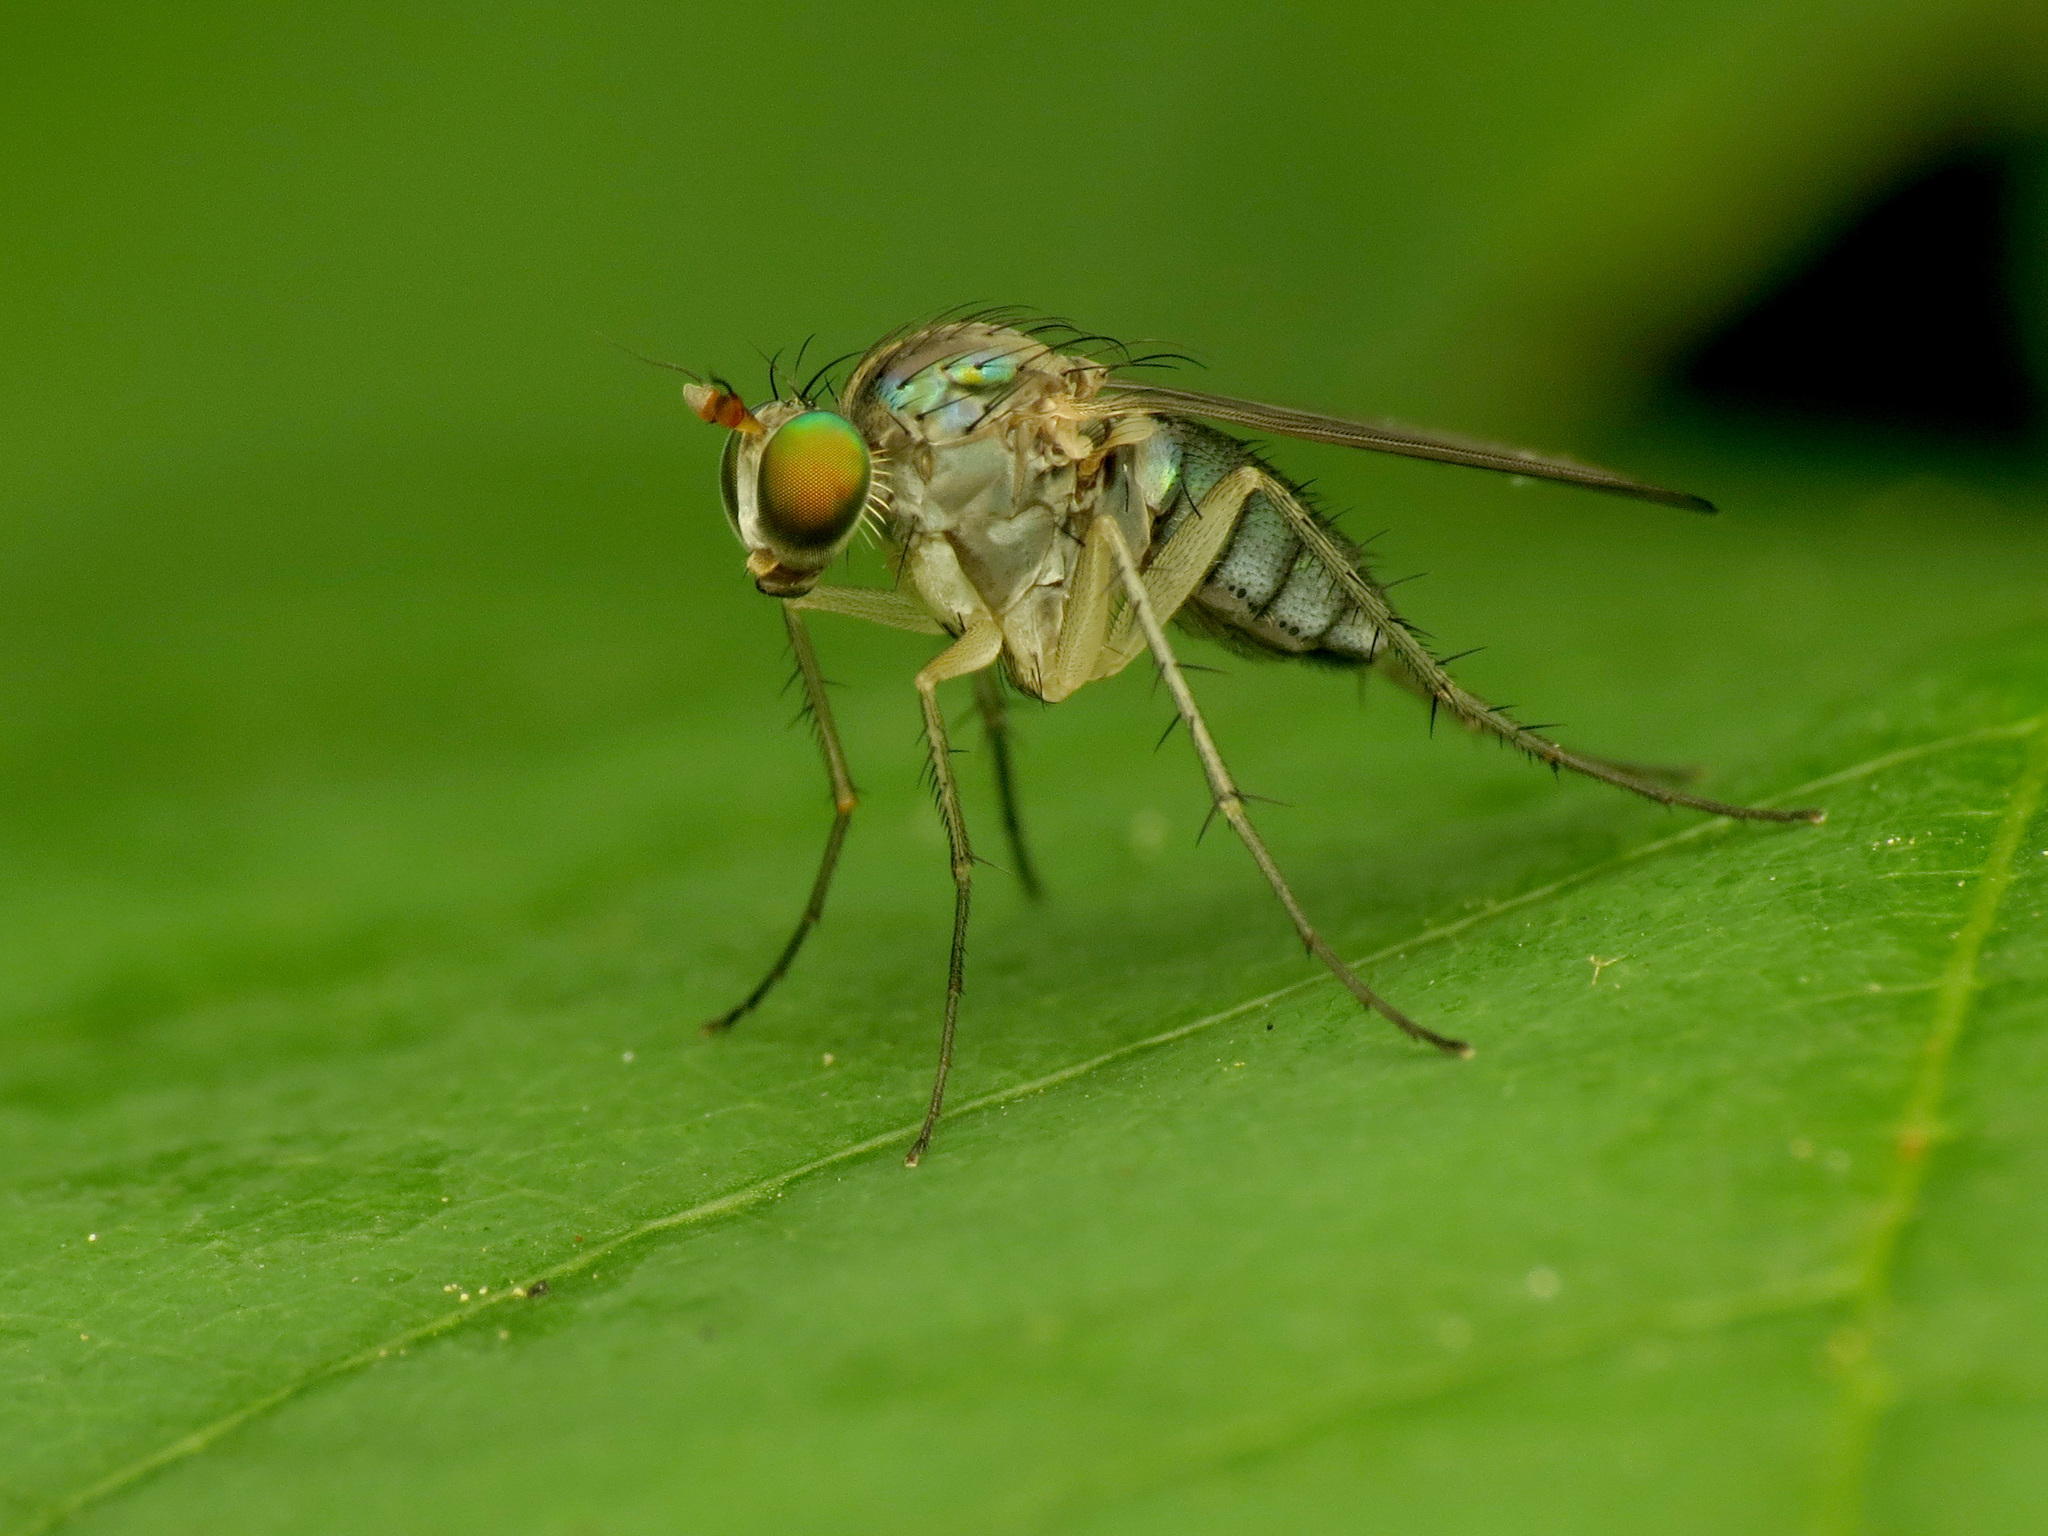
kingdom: Animalia
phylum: Arthropoda
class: Insecta
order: Diptera
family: Dolichopodidae
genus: Dolichopus
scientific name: Dolichopus scapularis
